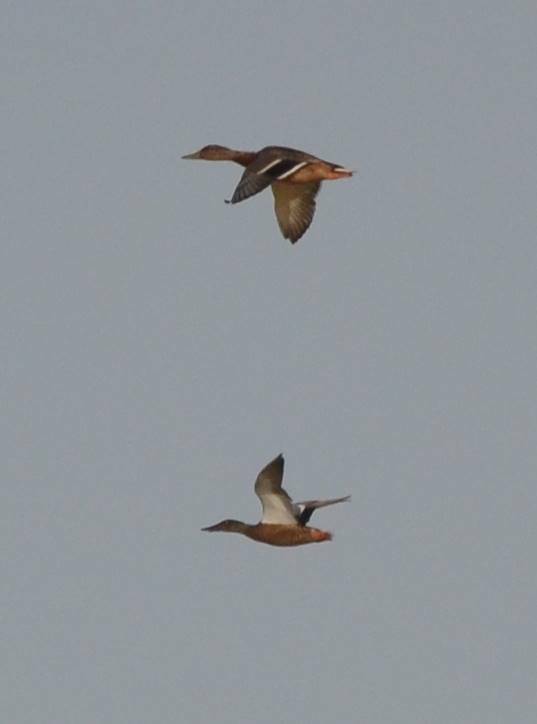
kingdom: Animalia
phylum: Chordata
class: Aves
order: Anseriformes
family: Anatidae
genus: Anas
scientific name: Anas platyrhynchos
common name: Mallard
